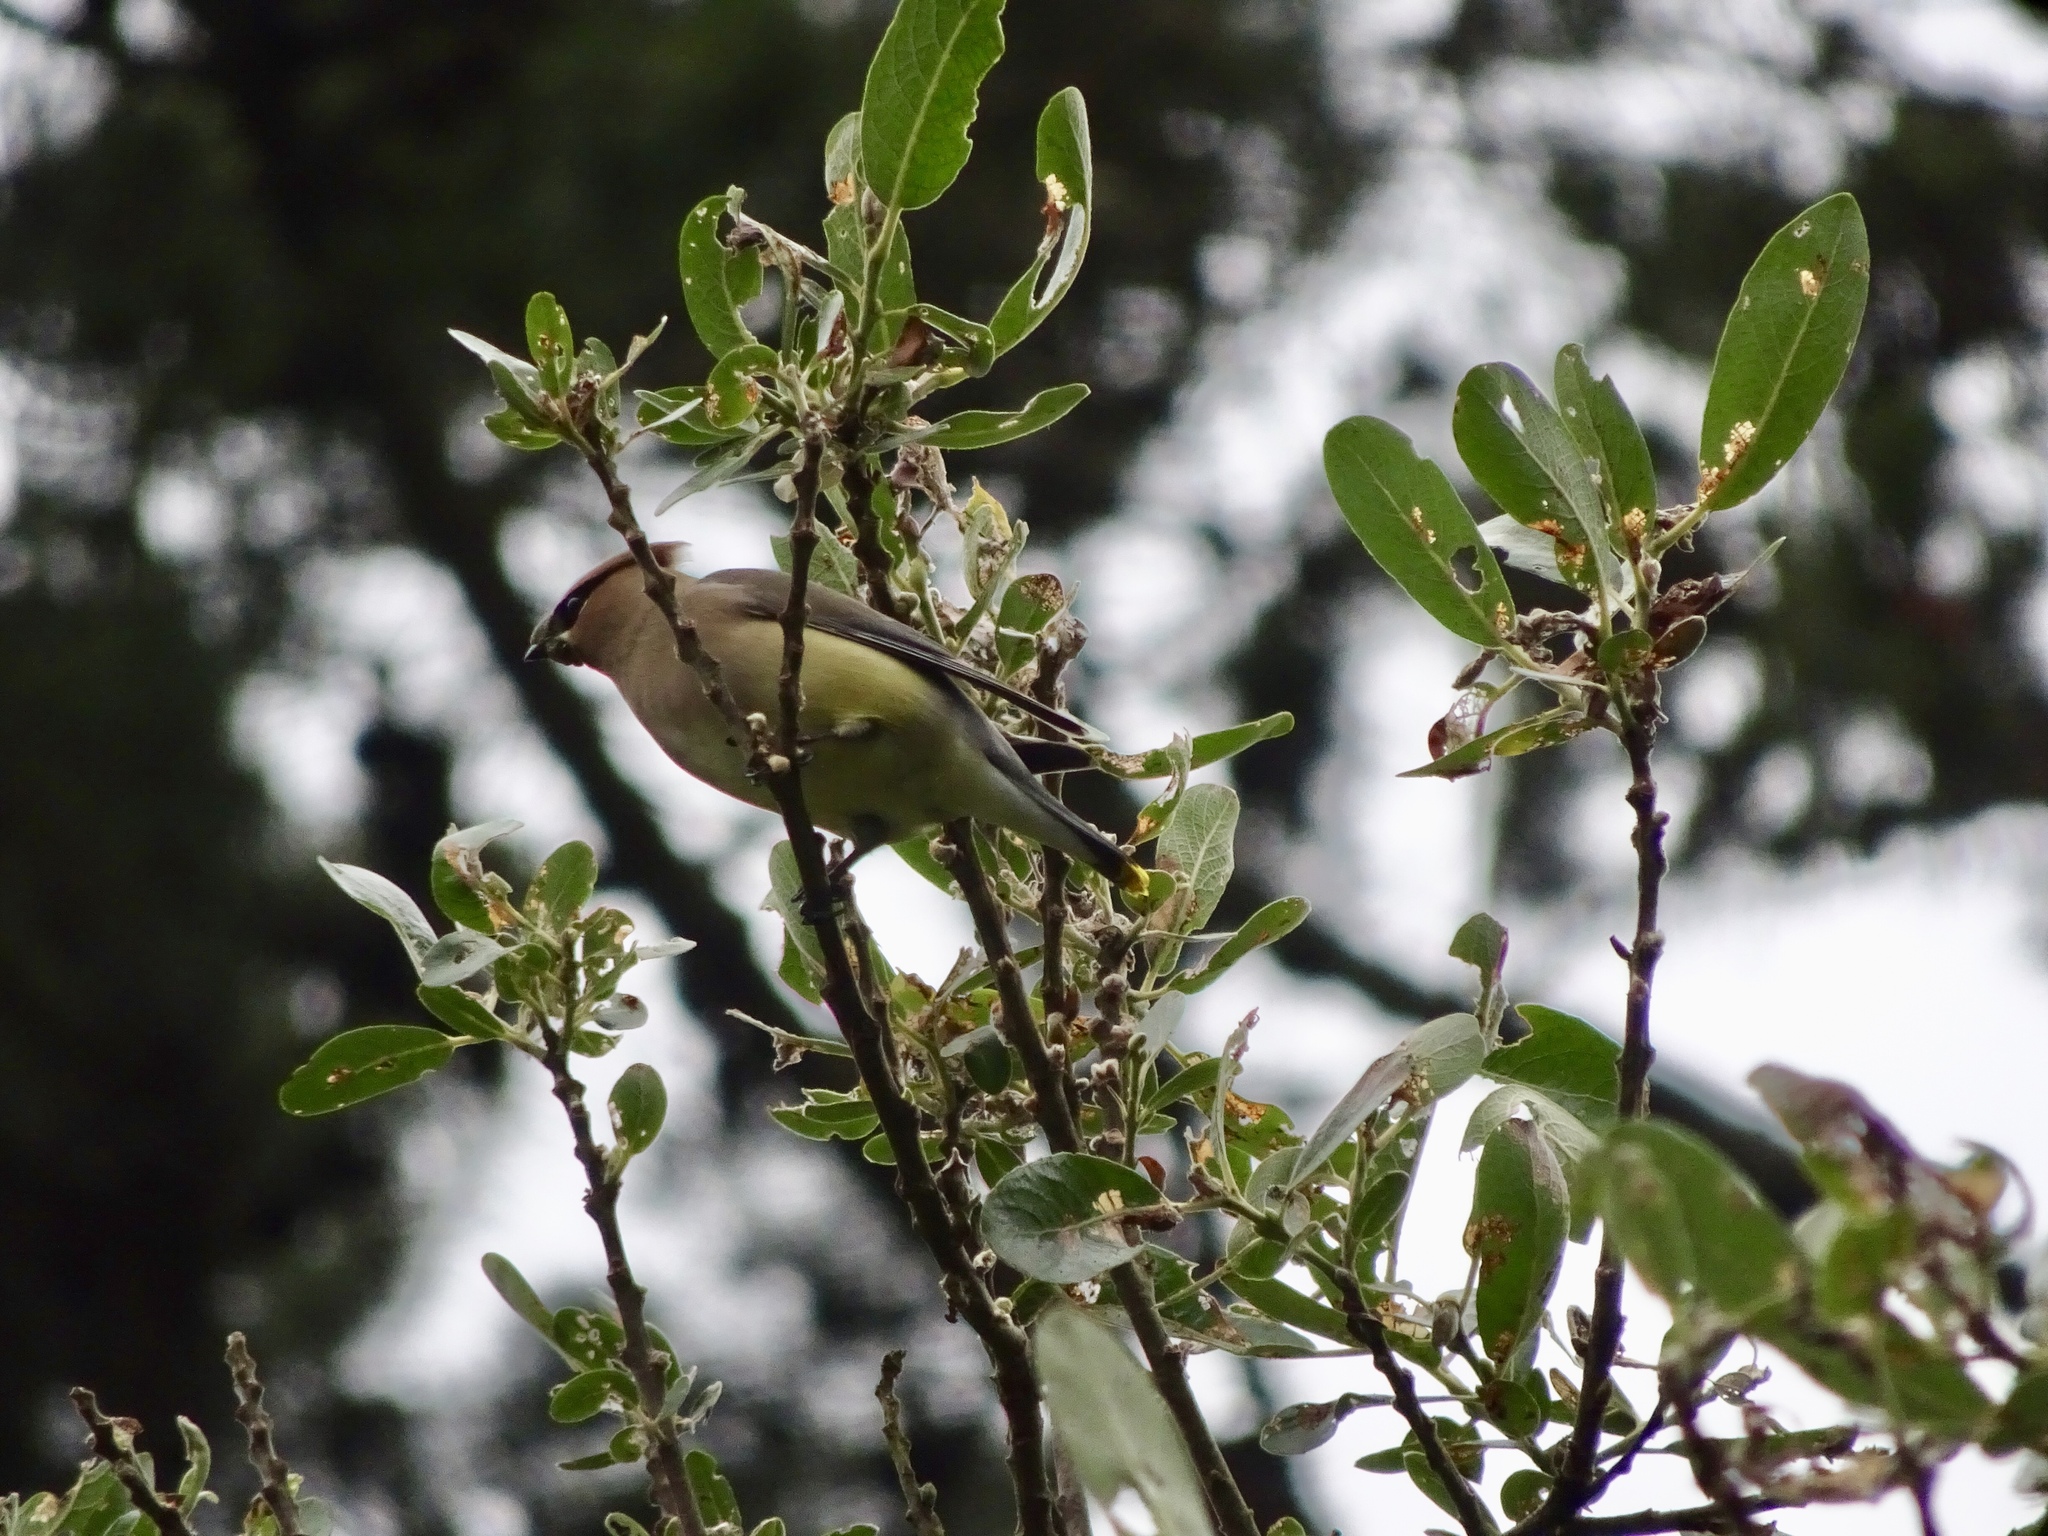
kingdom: Animalia
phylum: Chordata
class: Aves
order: Passeriformes
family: Bombycillidae
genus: Bombycilla
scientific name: Bombycilla cedrorum
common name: Cedar waxwing
